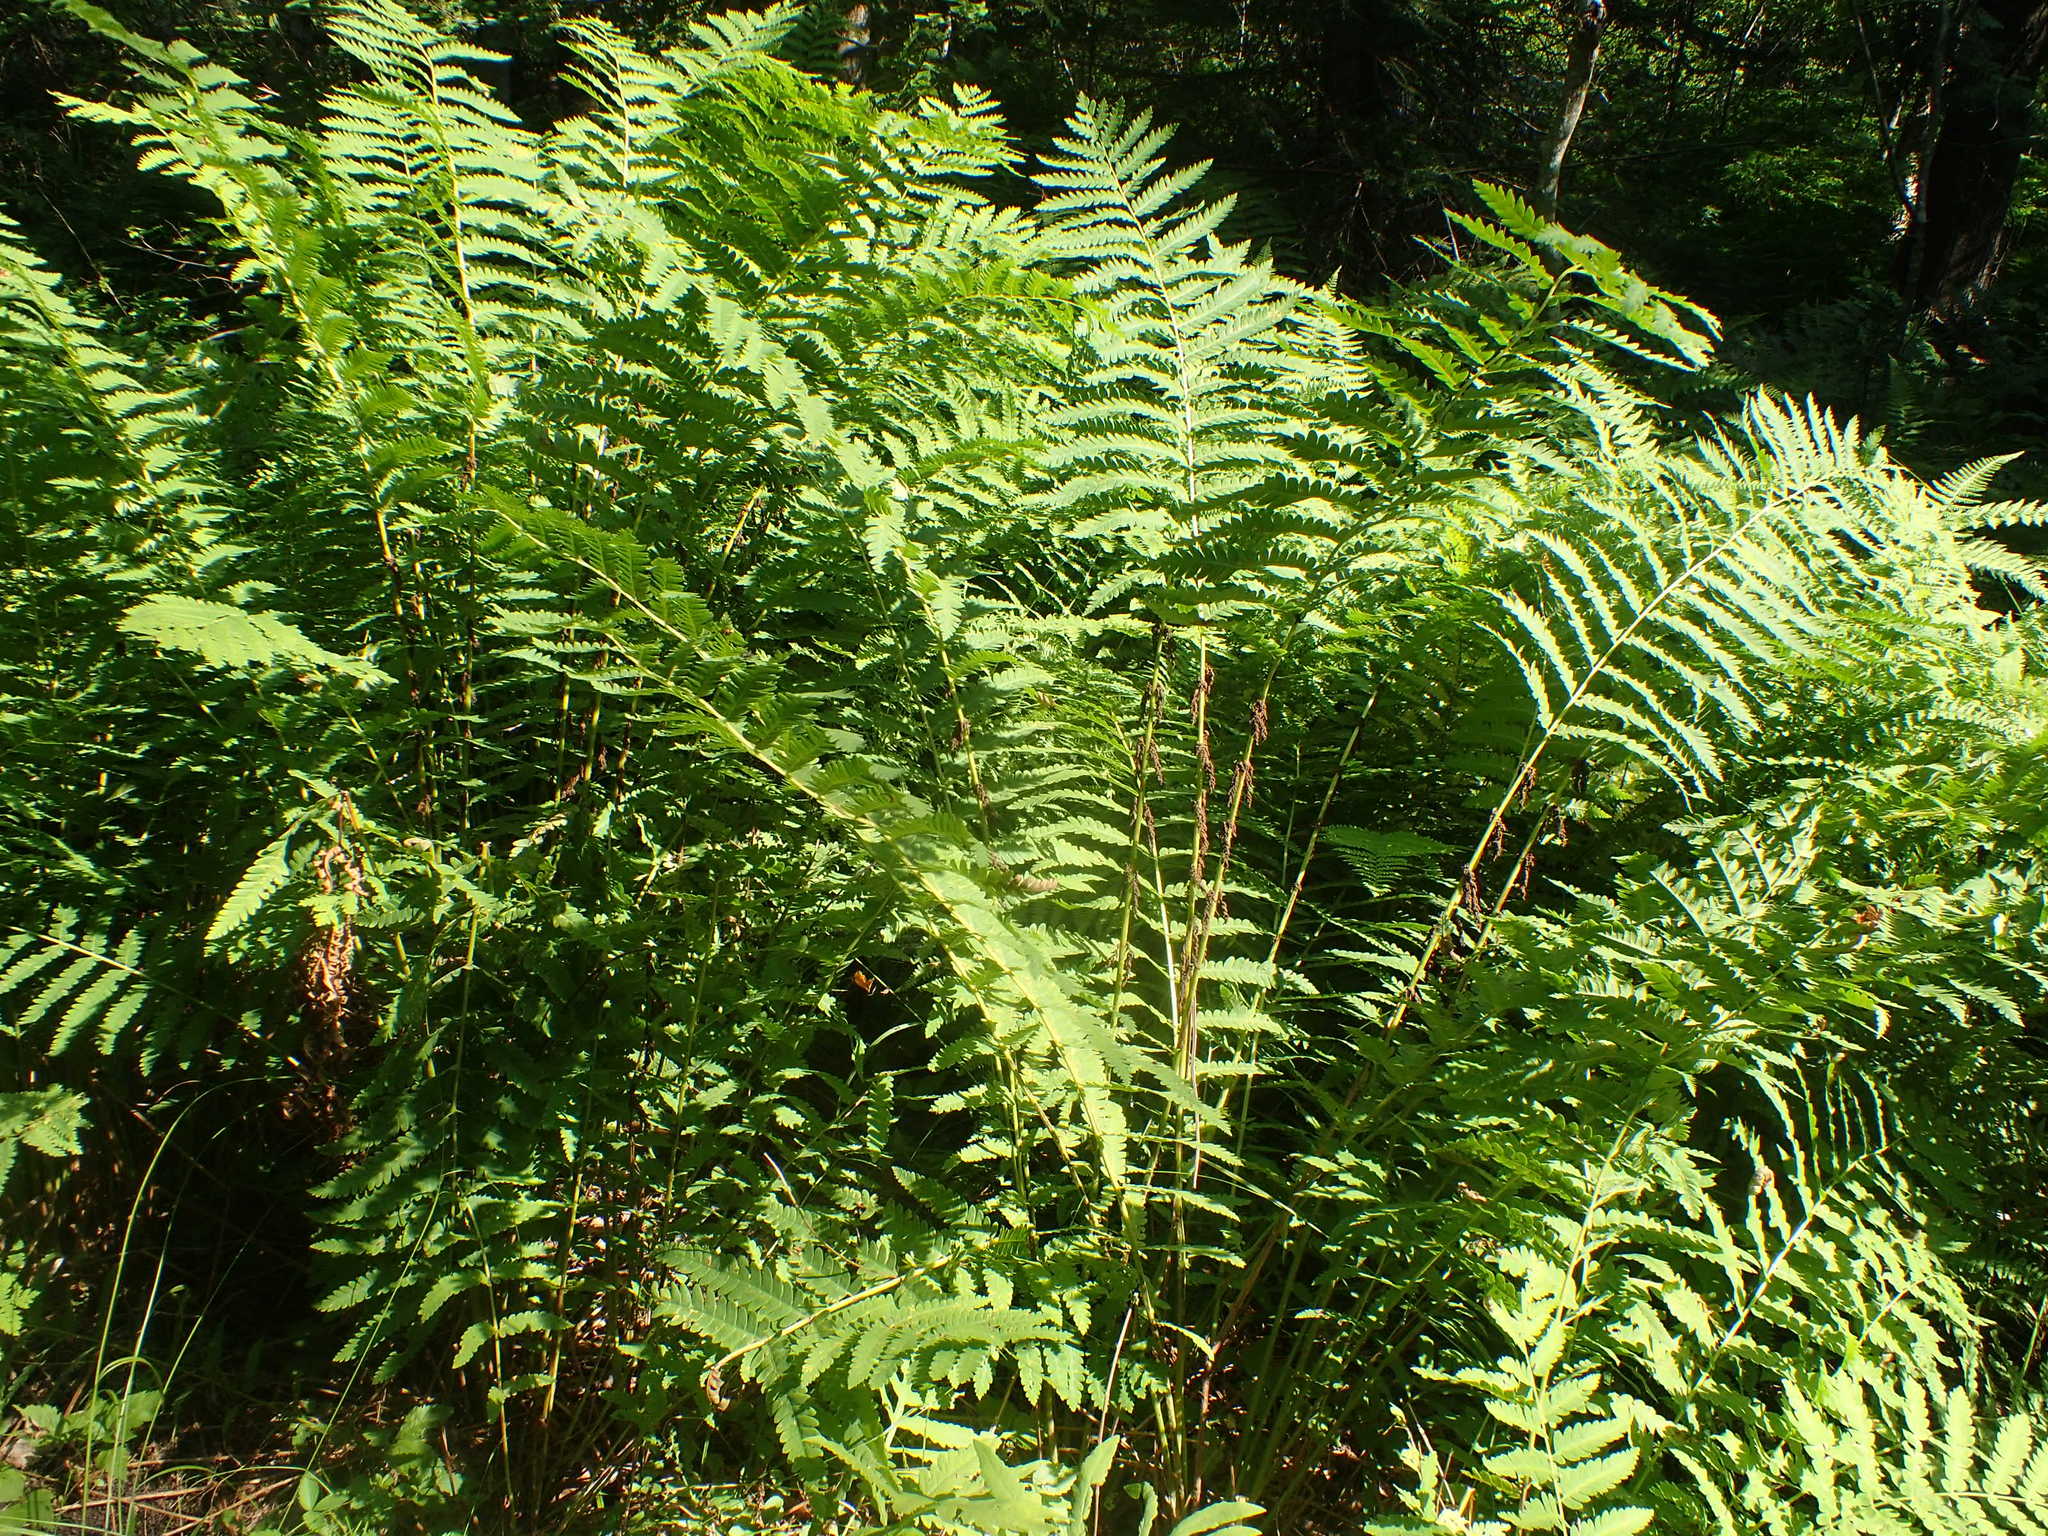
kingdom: Plantae
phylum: Tracheophyta
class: Polypodiopsida
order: Osmundales
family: Osmundaceae
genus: Claytosmunda
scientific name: Claytosmunda claytoniana
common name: Clayton's fern
